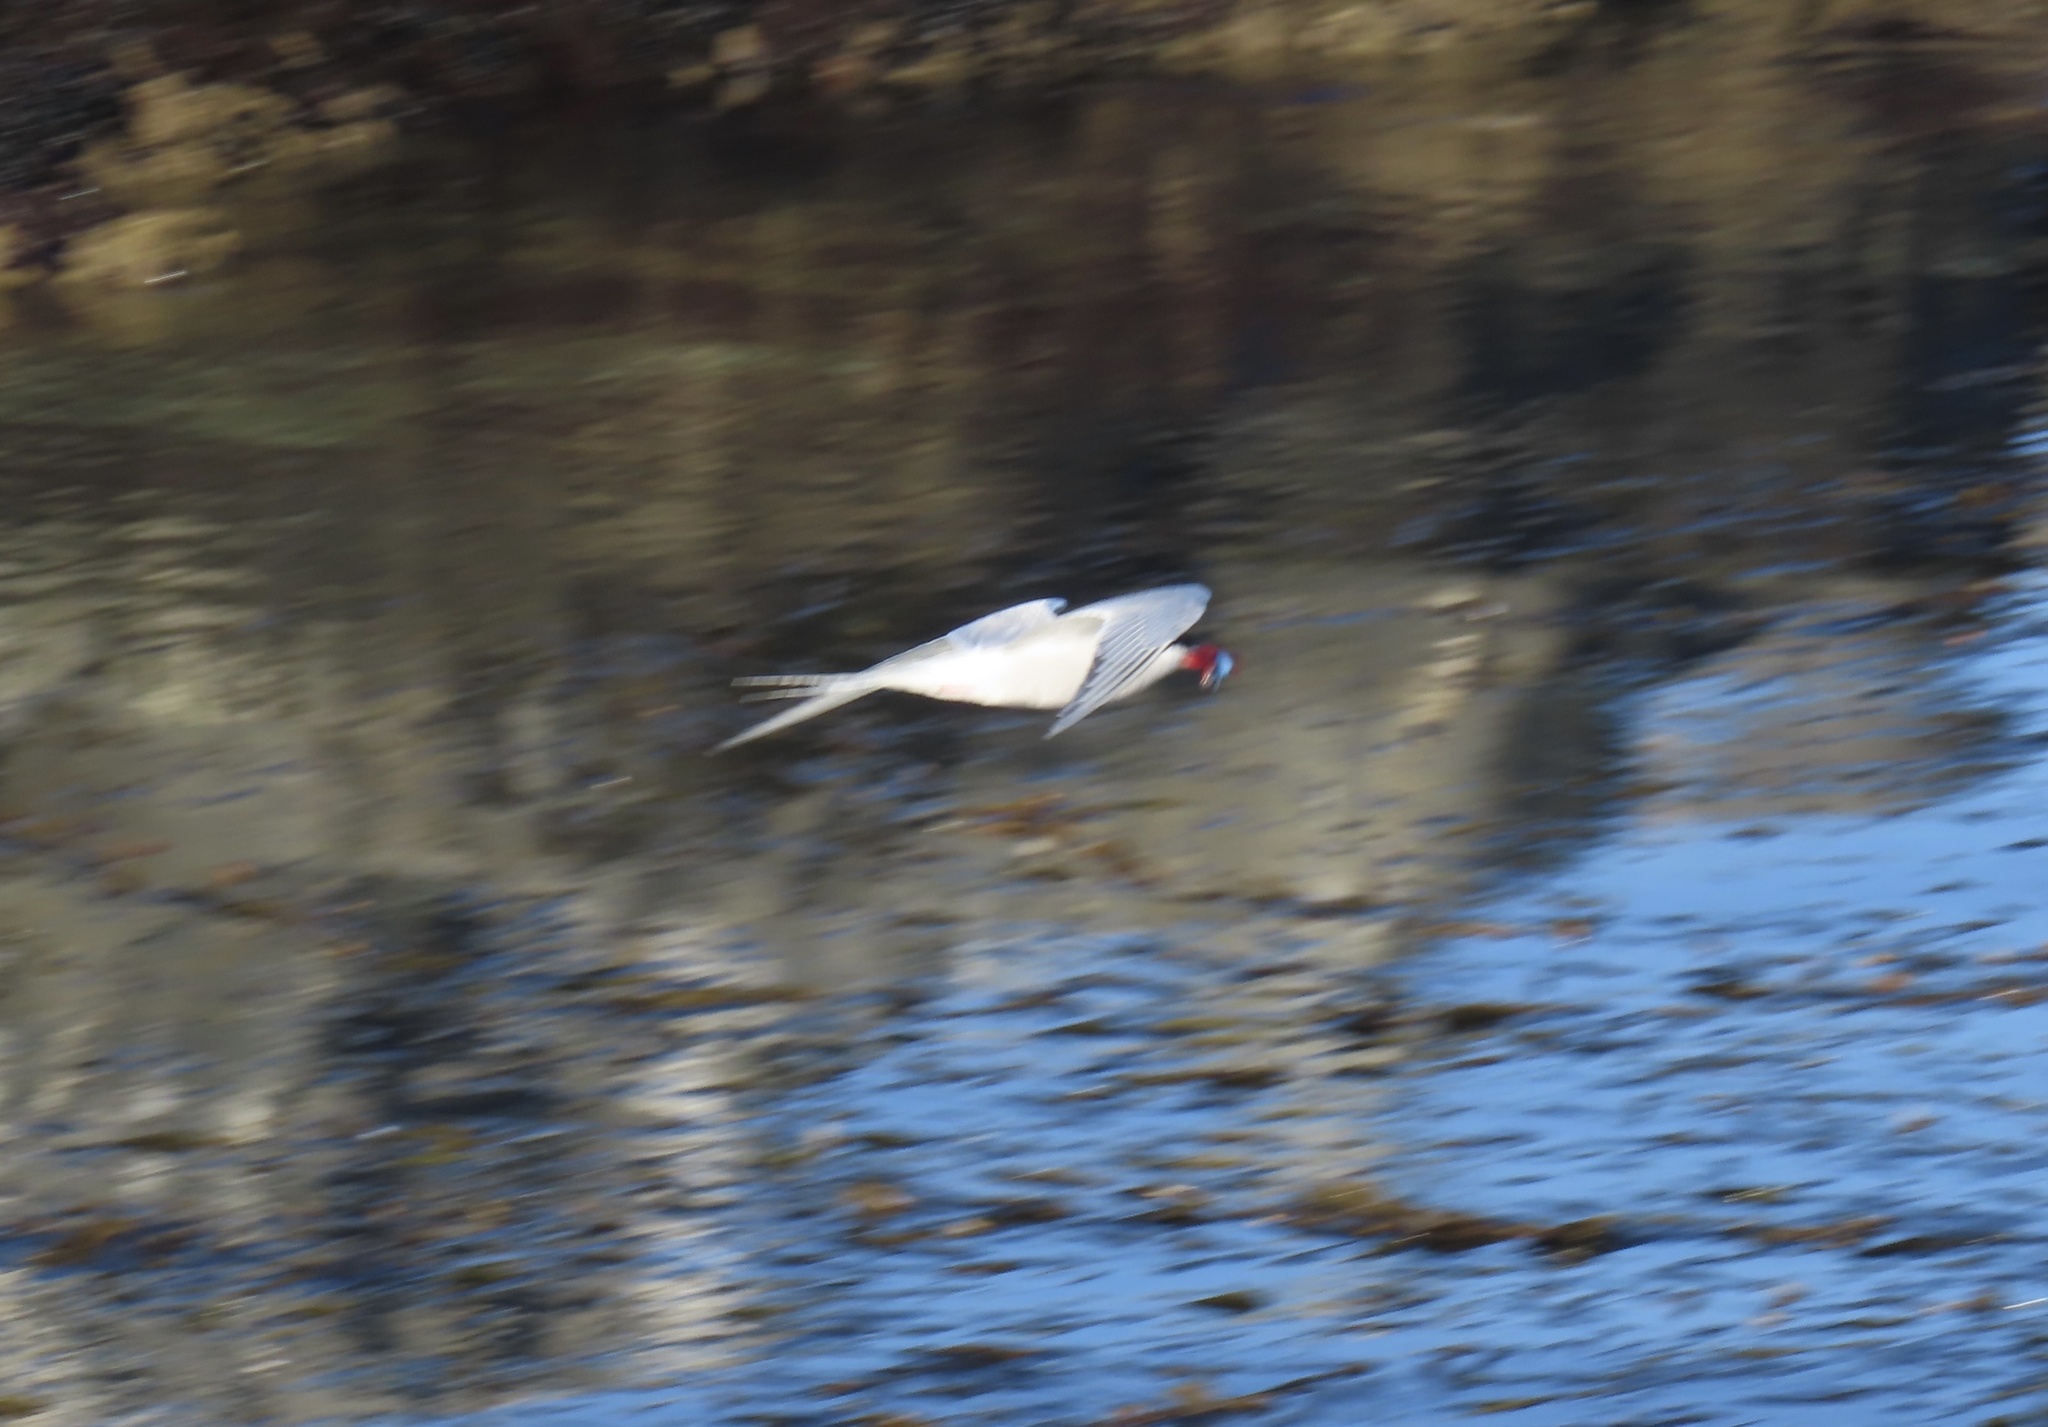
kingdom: Animalia
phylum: Chordata
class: Aves
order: Charadriiformes
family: Laridae
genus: Sterna
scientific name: Sterna hirundinacea
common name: South american tern
